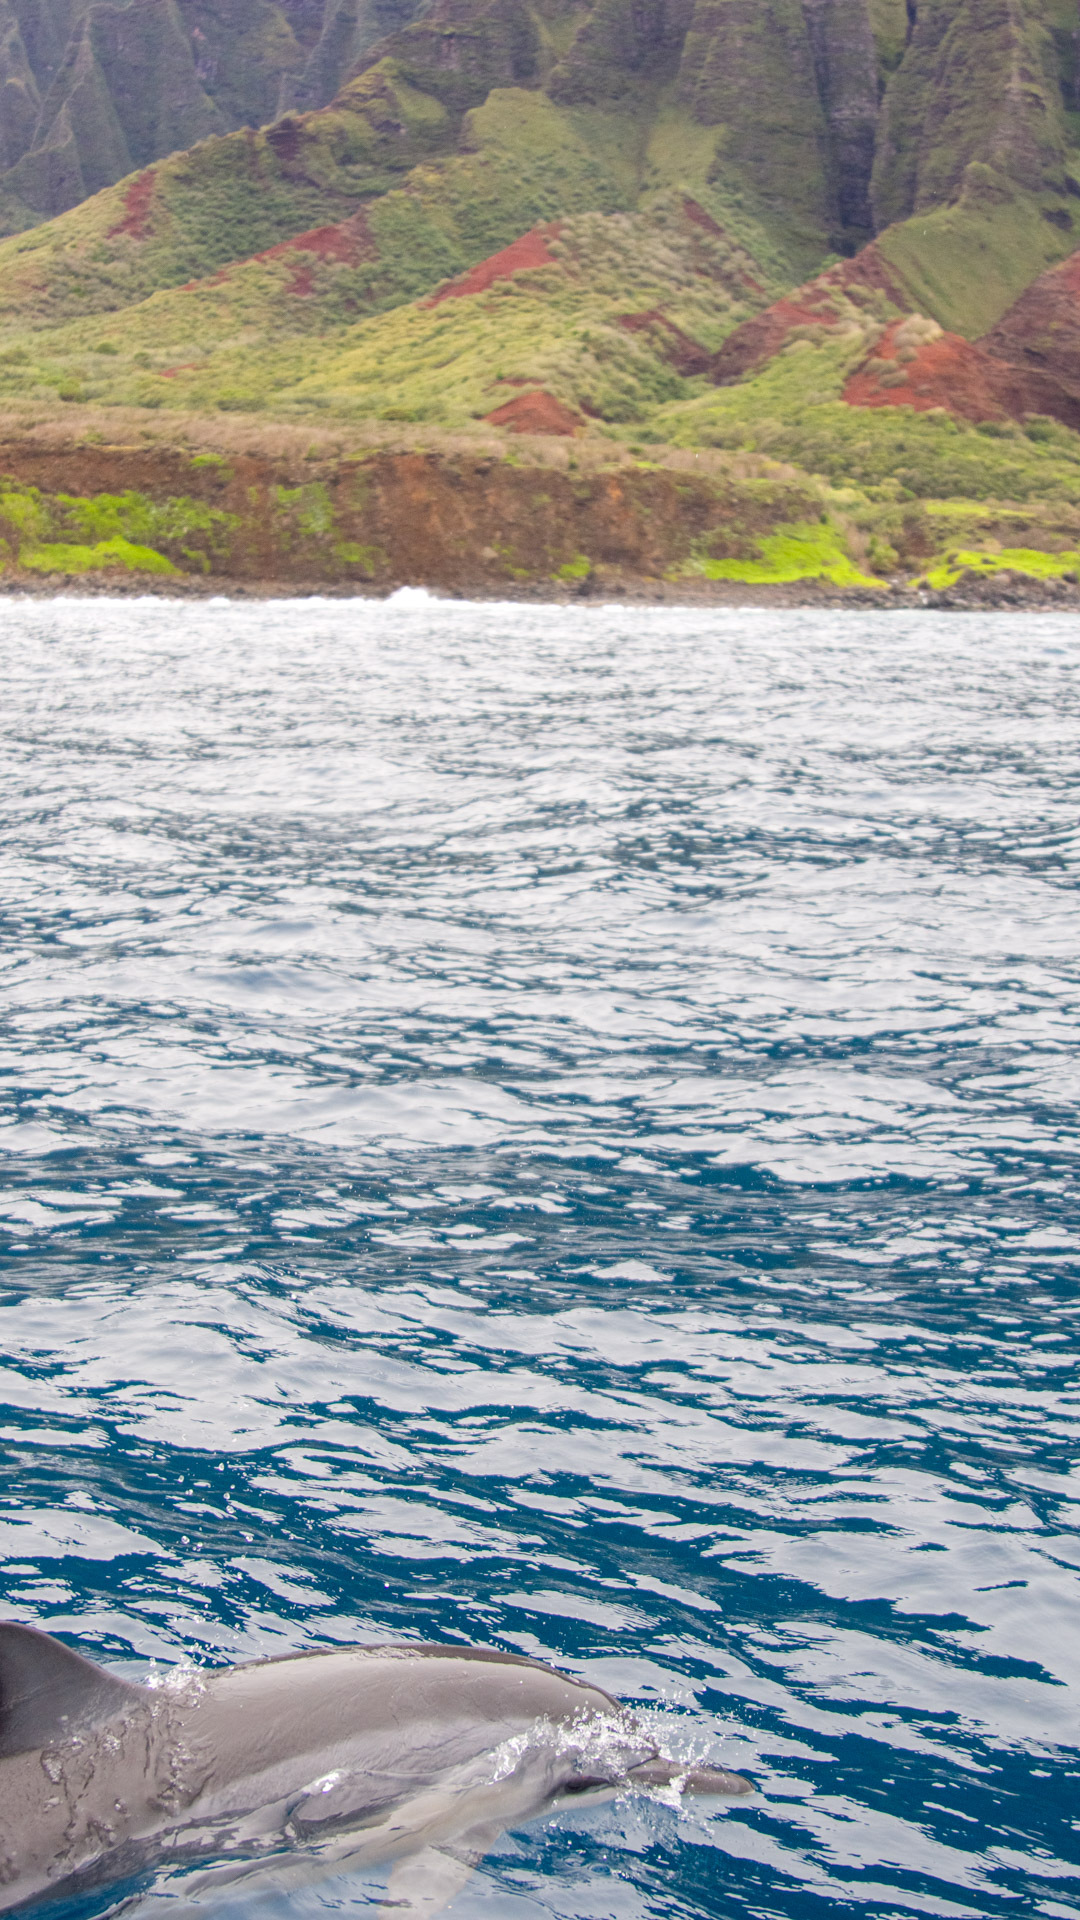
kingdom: Animalia
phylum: Chordata
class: Mammalia
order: Cetacea
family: Delphinidae
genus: Stenella
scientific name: Stenella longirostris
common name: Spinner dolphin
